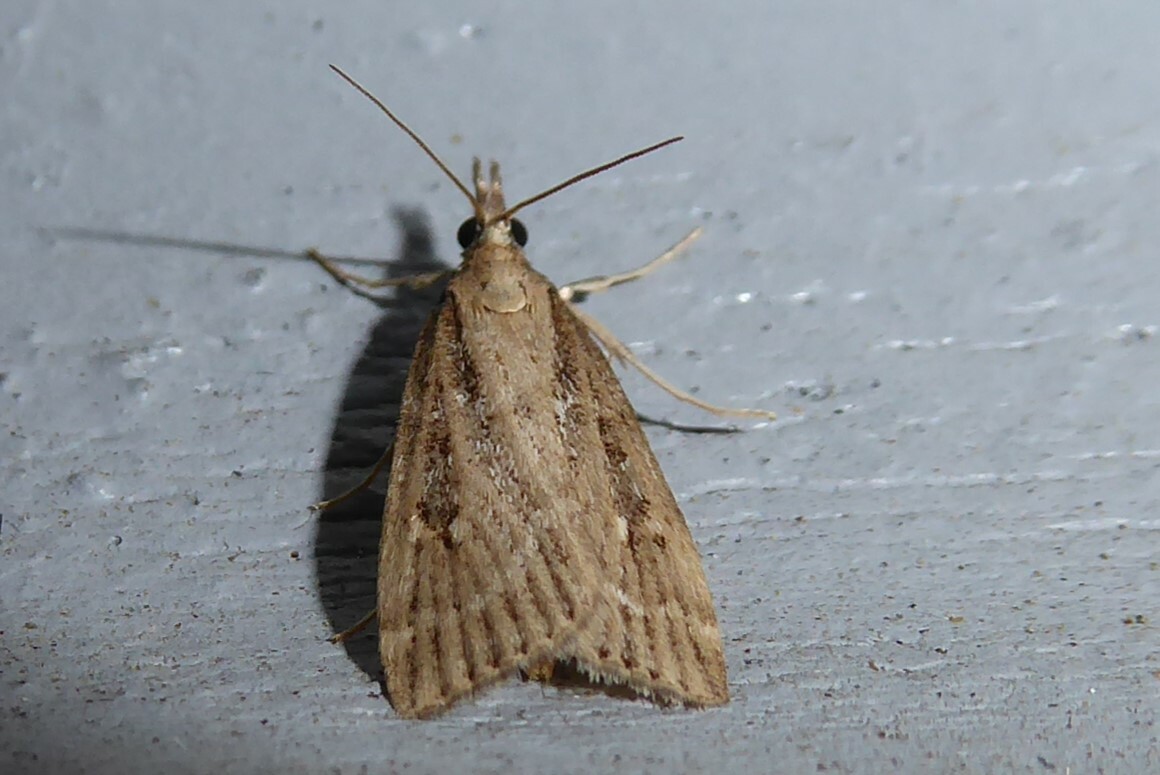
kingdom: Animalia
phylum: Arthropoda
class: Insecta
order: Lepidoptera
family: Crambidae
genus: Eudonia
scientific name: Eudonia octophora
